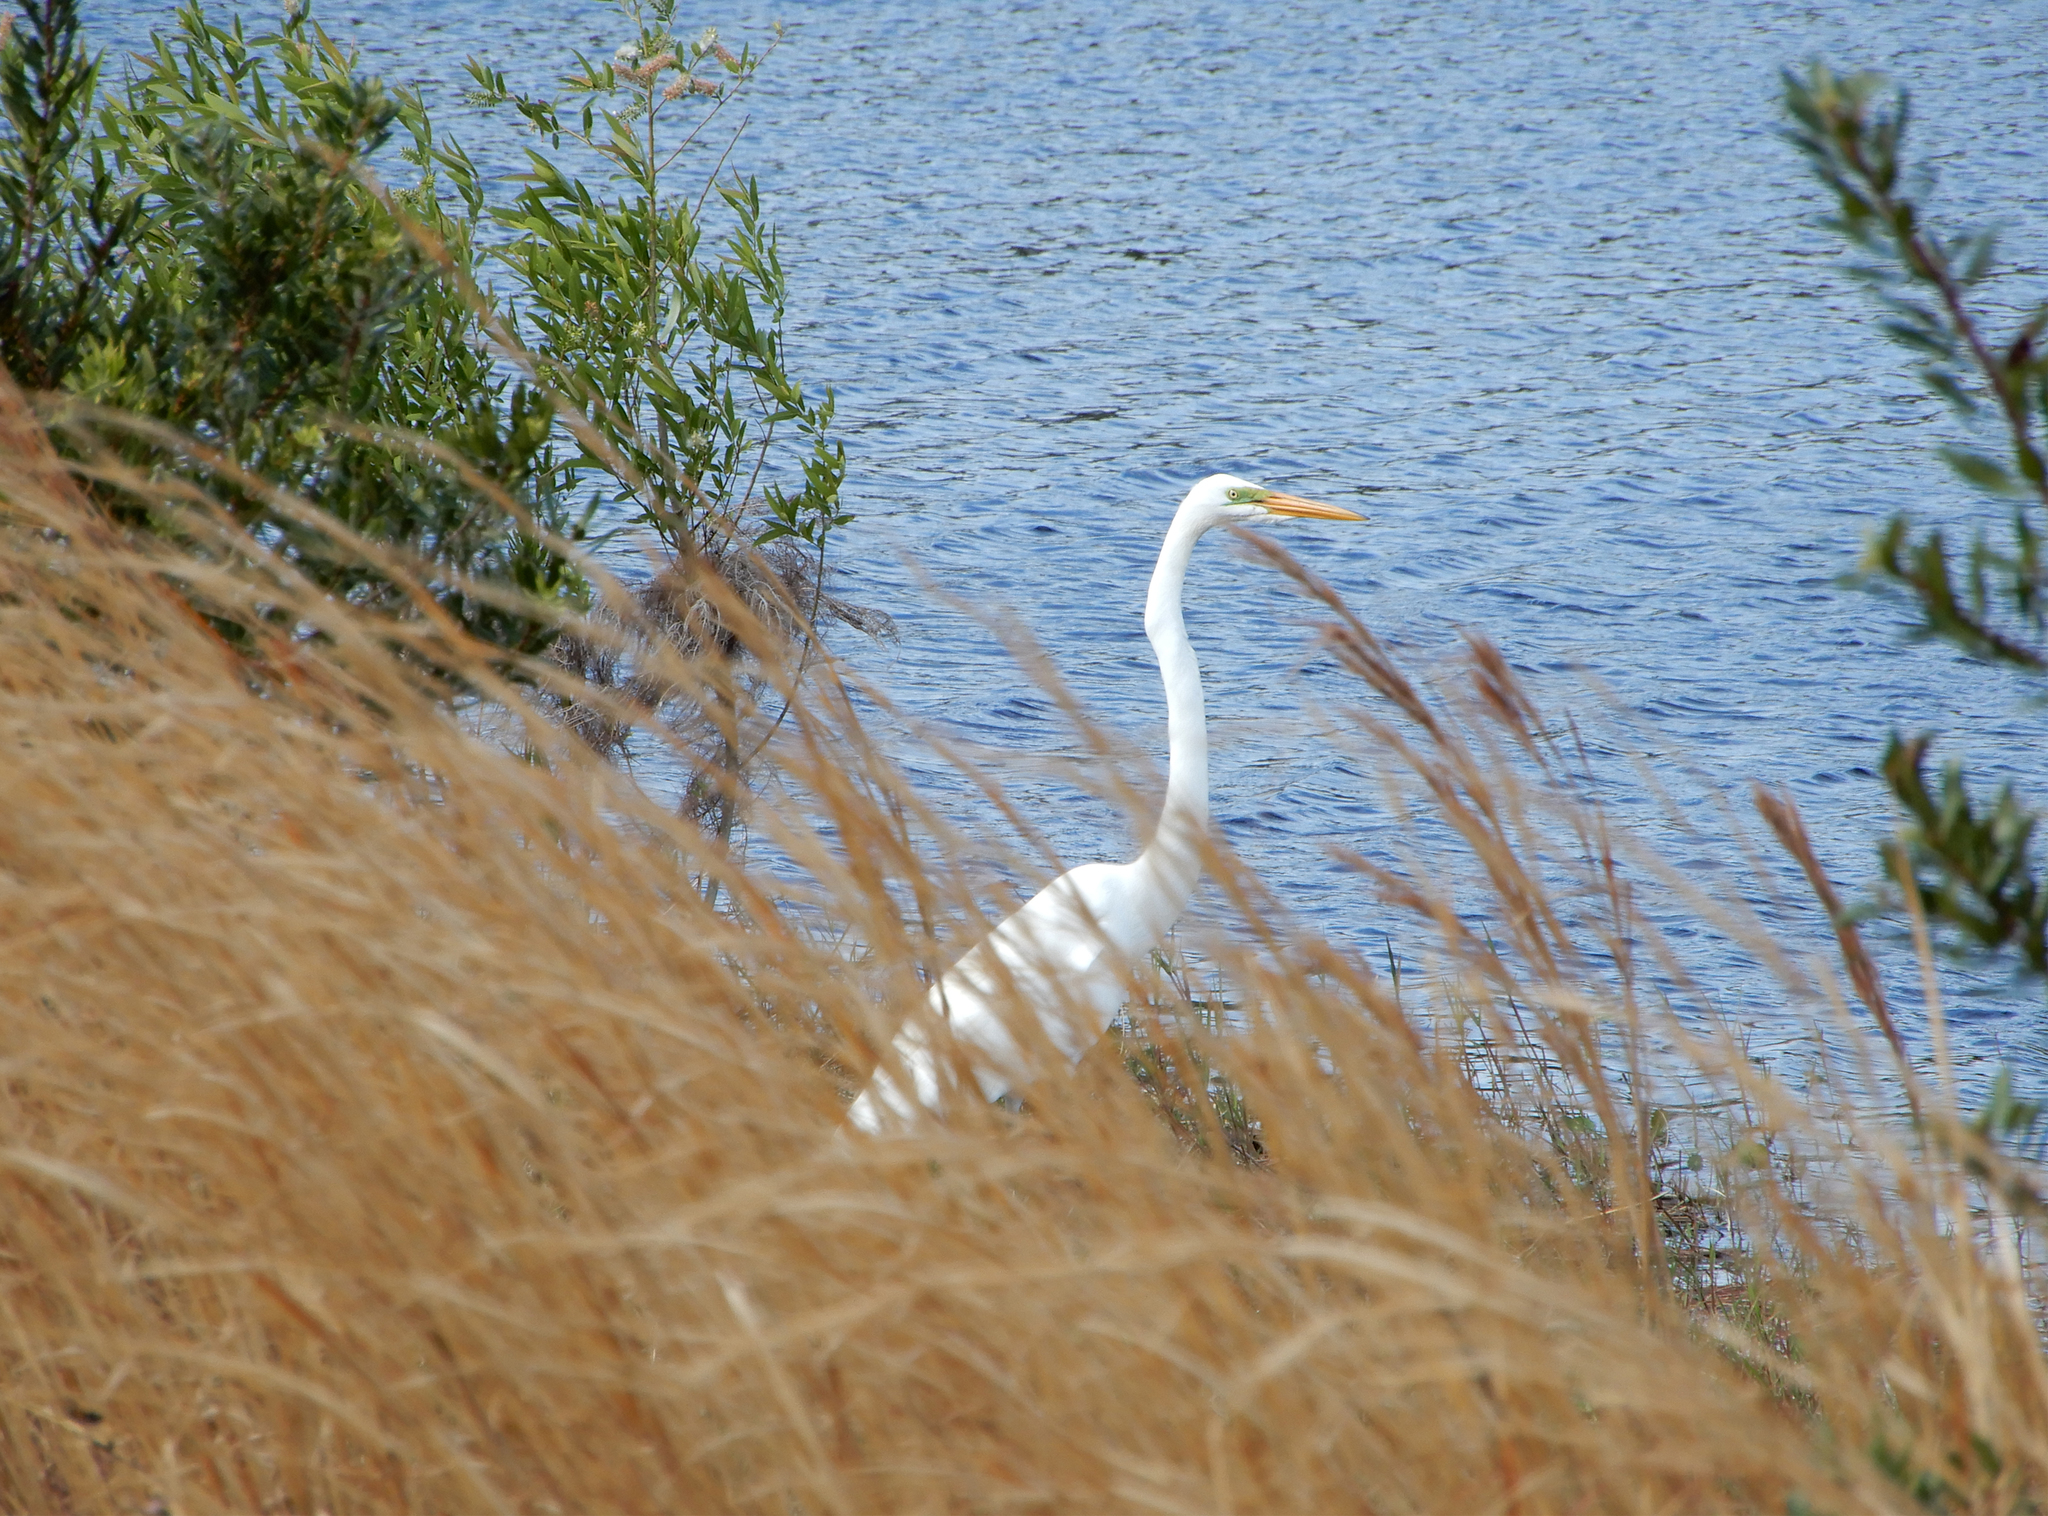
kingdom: Animalia
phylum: Chordata
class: Aves
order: Pelecaniformes
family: Ardeidae
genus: Ardea
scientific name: Ardea alba
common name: Great egret
